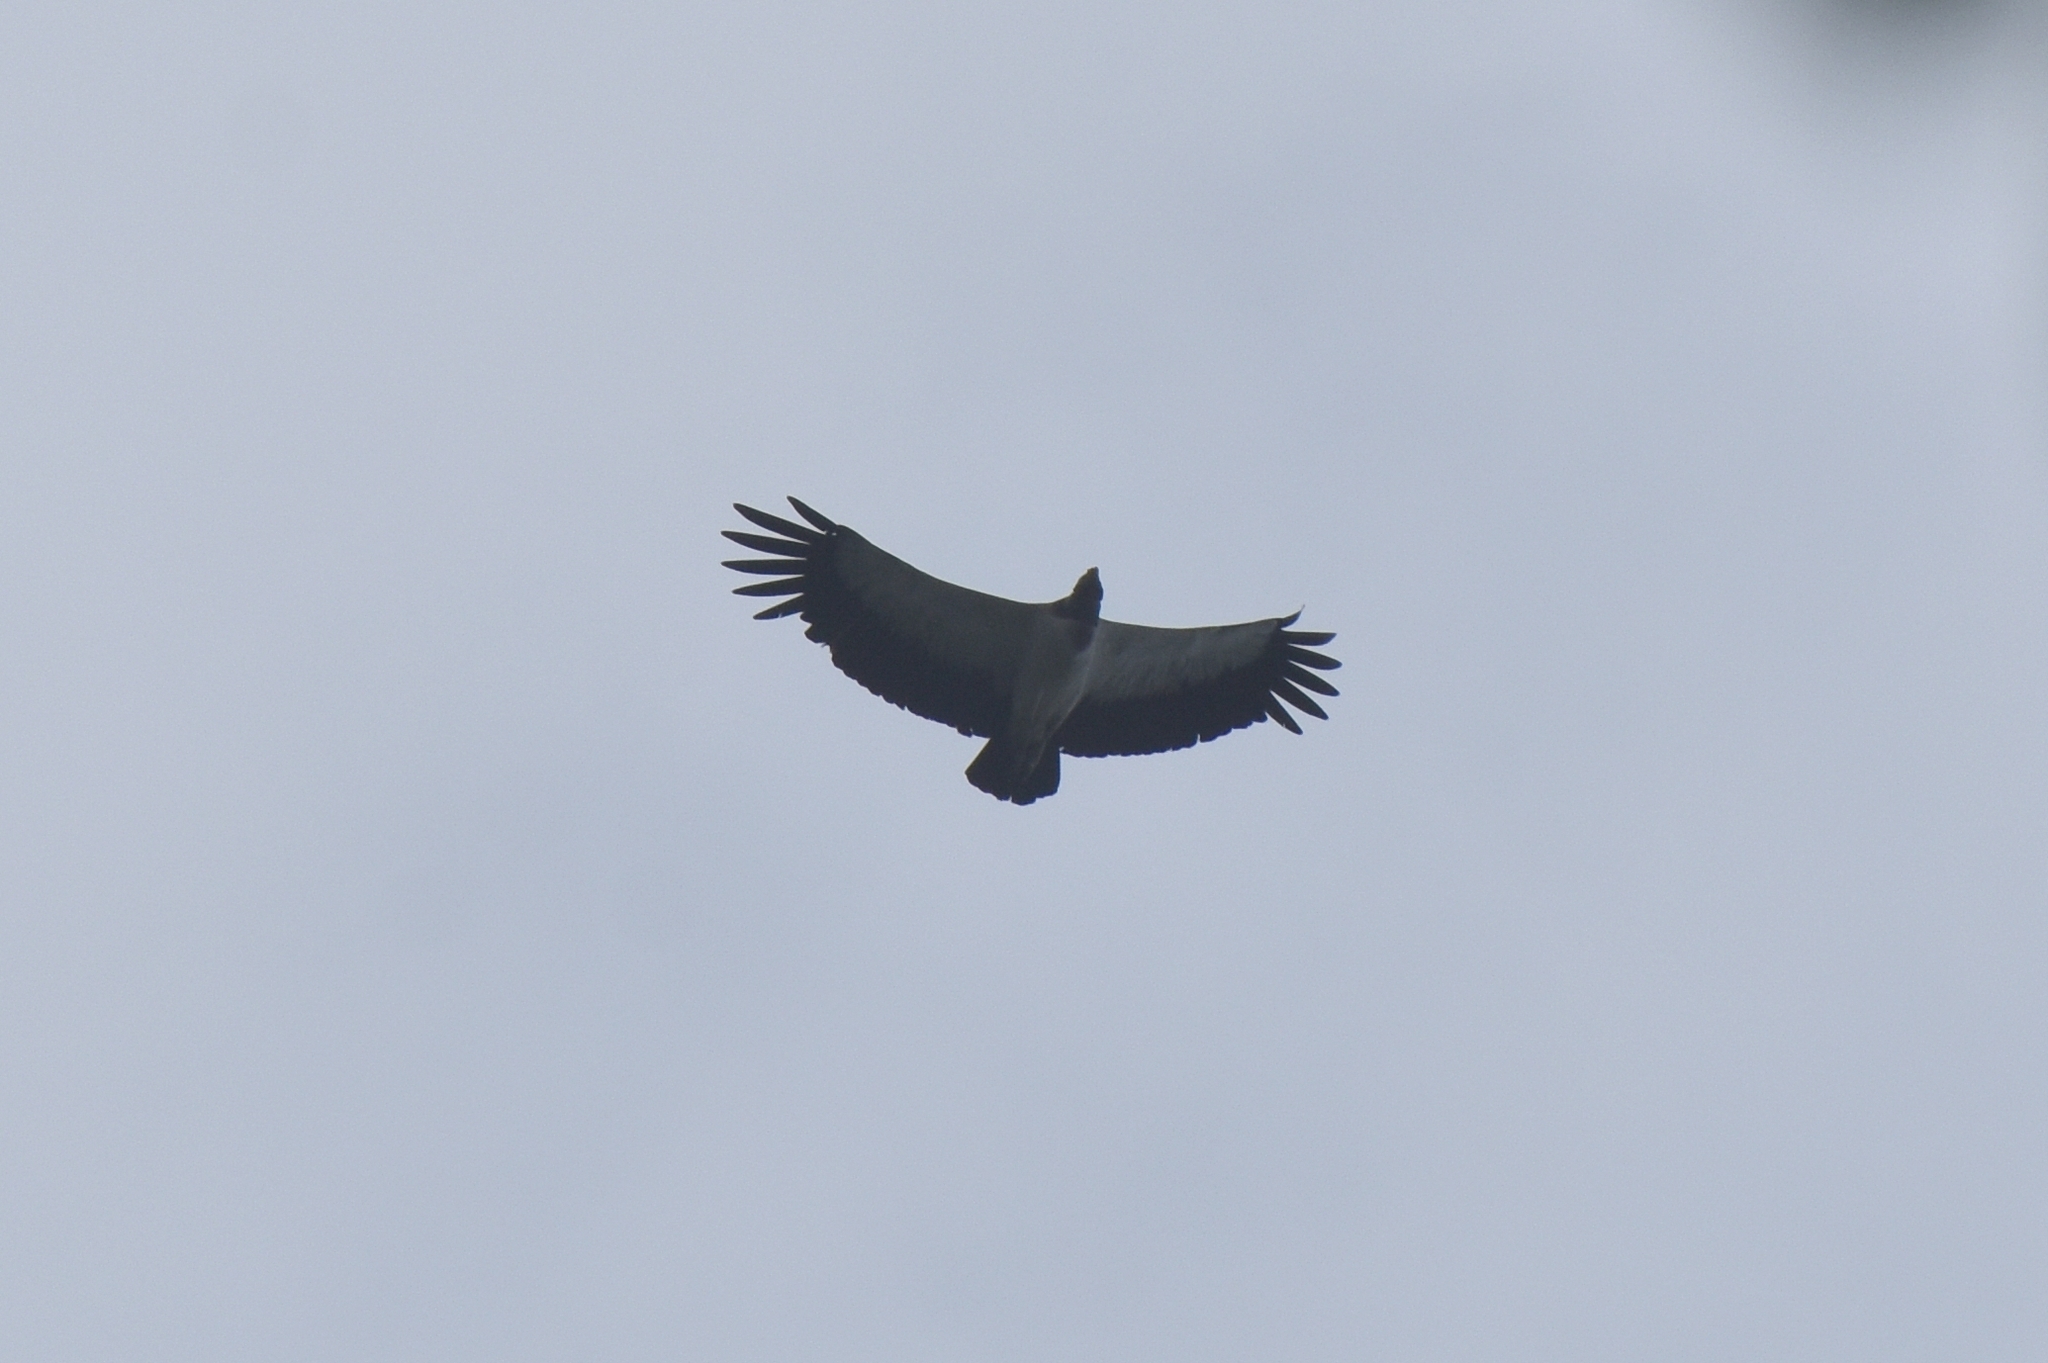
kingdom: Animalia
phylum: Chordata
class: Aves
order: Accipitriformes
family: Cathartidae
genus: Sarcoramphus
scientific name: Sarcoramphus papa
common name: King vulture
